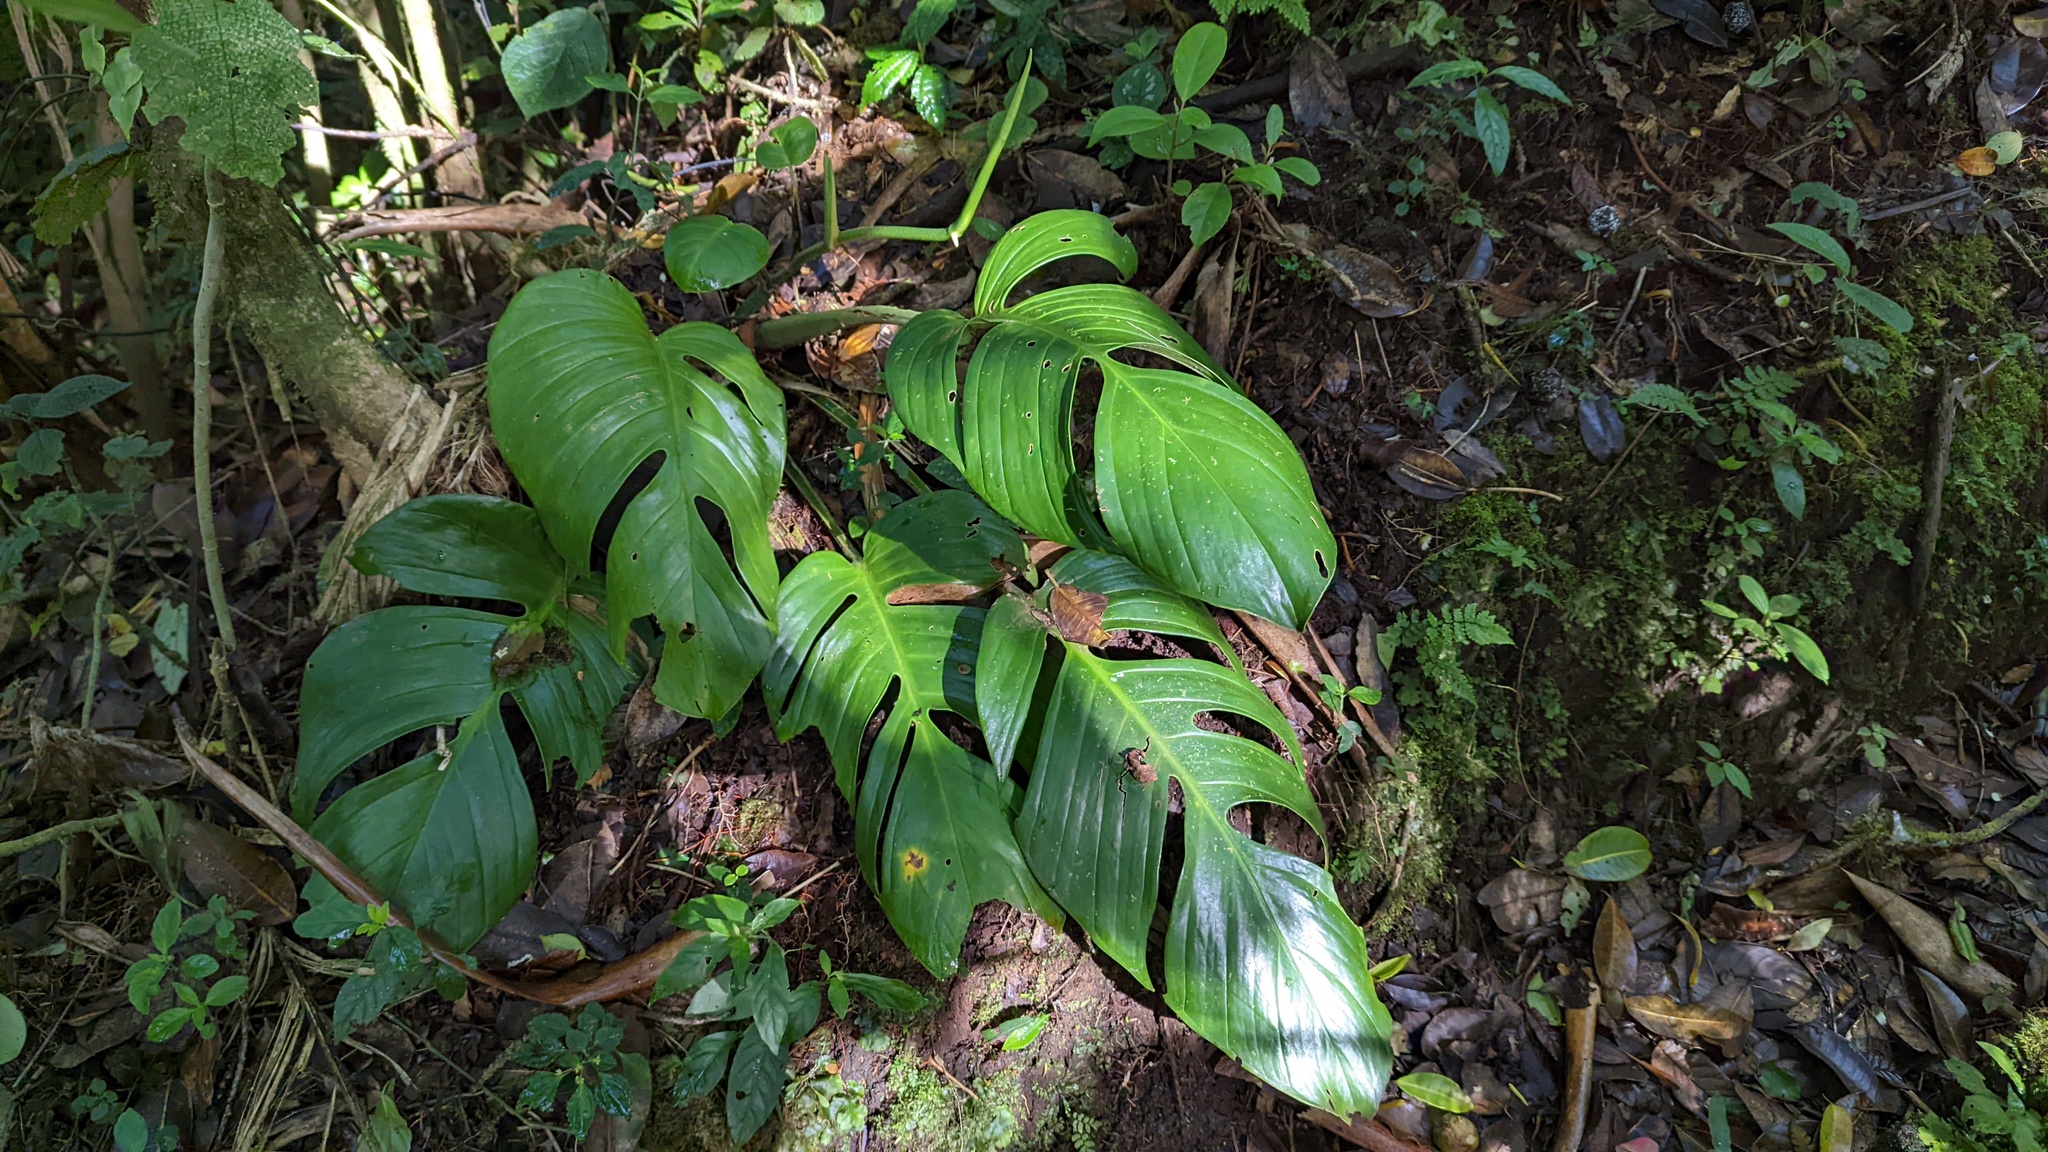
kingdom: Plantae
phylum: Tracheophyta
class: Liliopsida
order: Alismatales
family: Araceae
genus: Monstera
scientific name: Monstera monteverdensis
